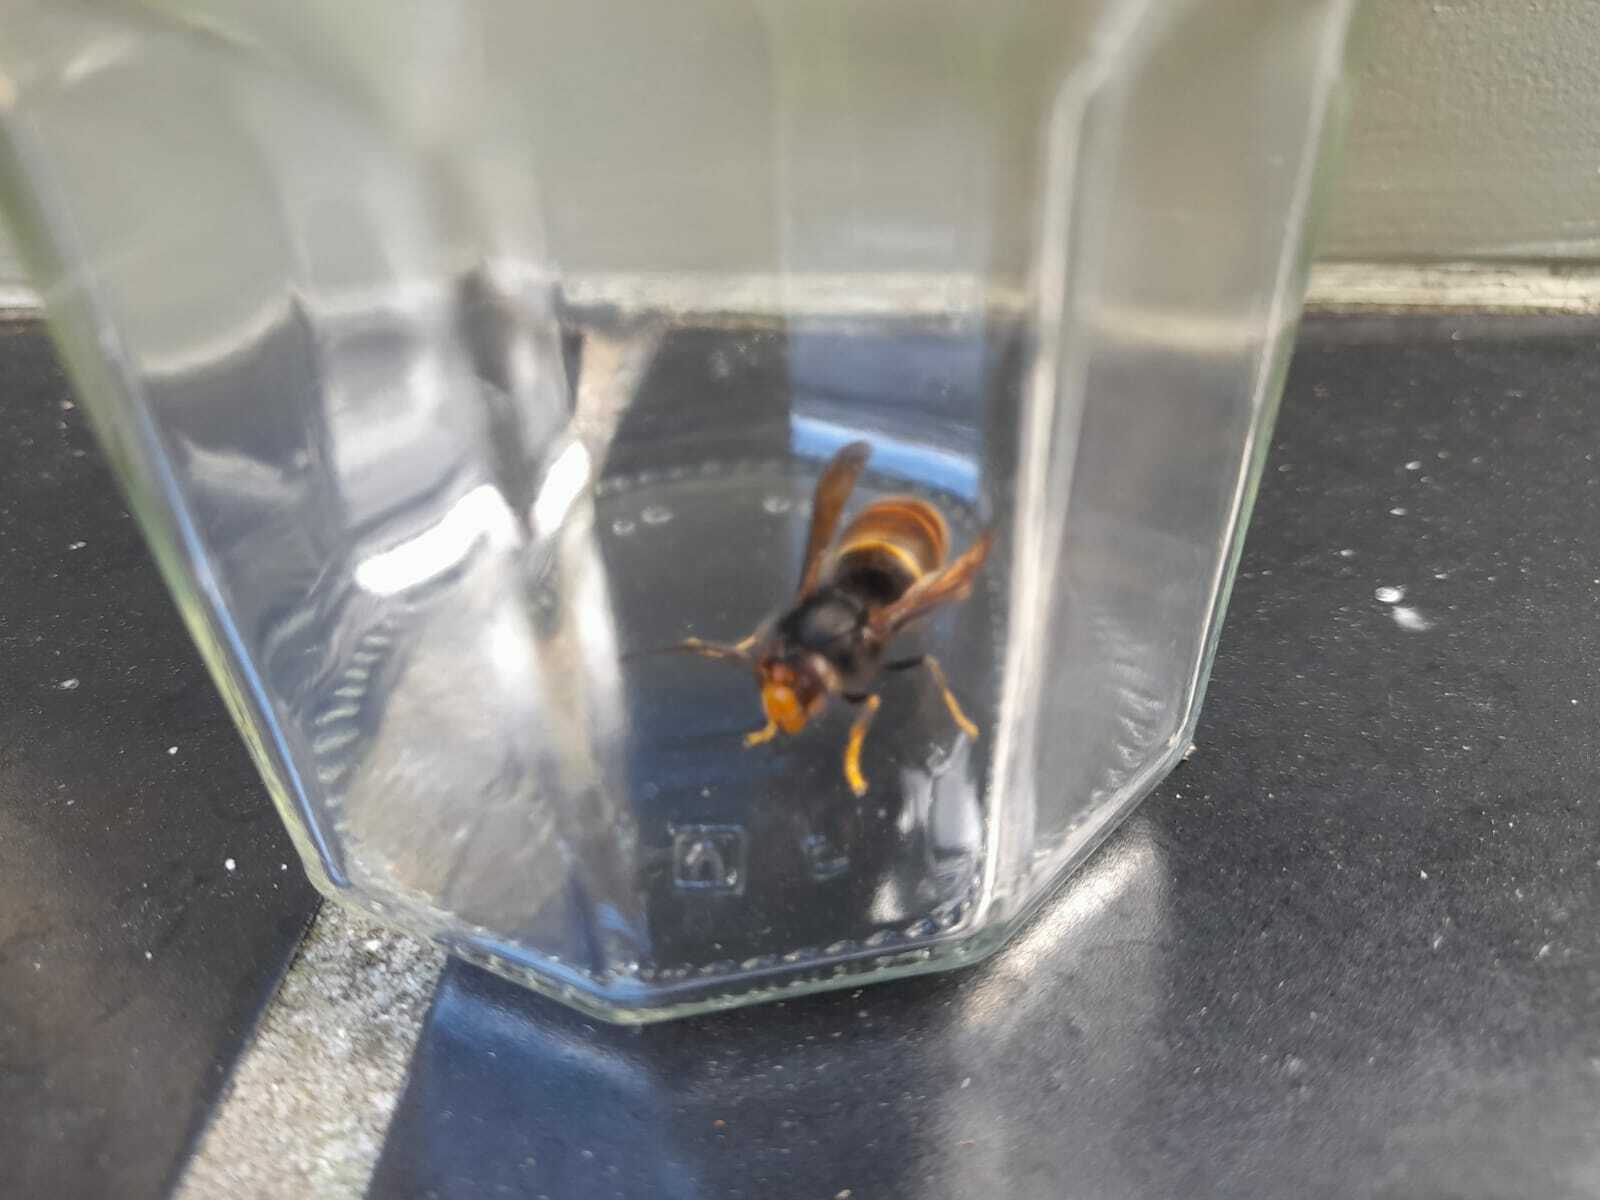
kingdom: Animalia
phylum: Arthropoda
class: Insecta
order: Hymenoptera
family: Vespidae
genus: Vespa
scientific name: Vespa velutina
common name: Asian hornet
